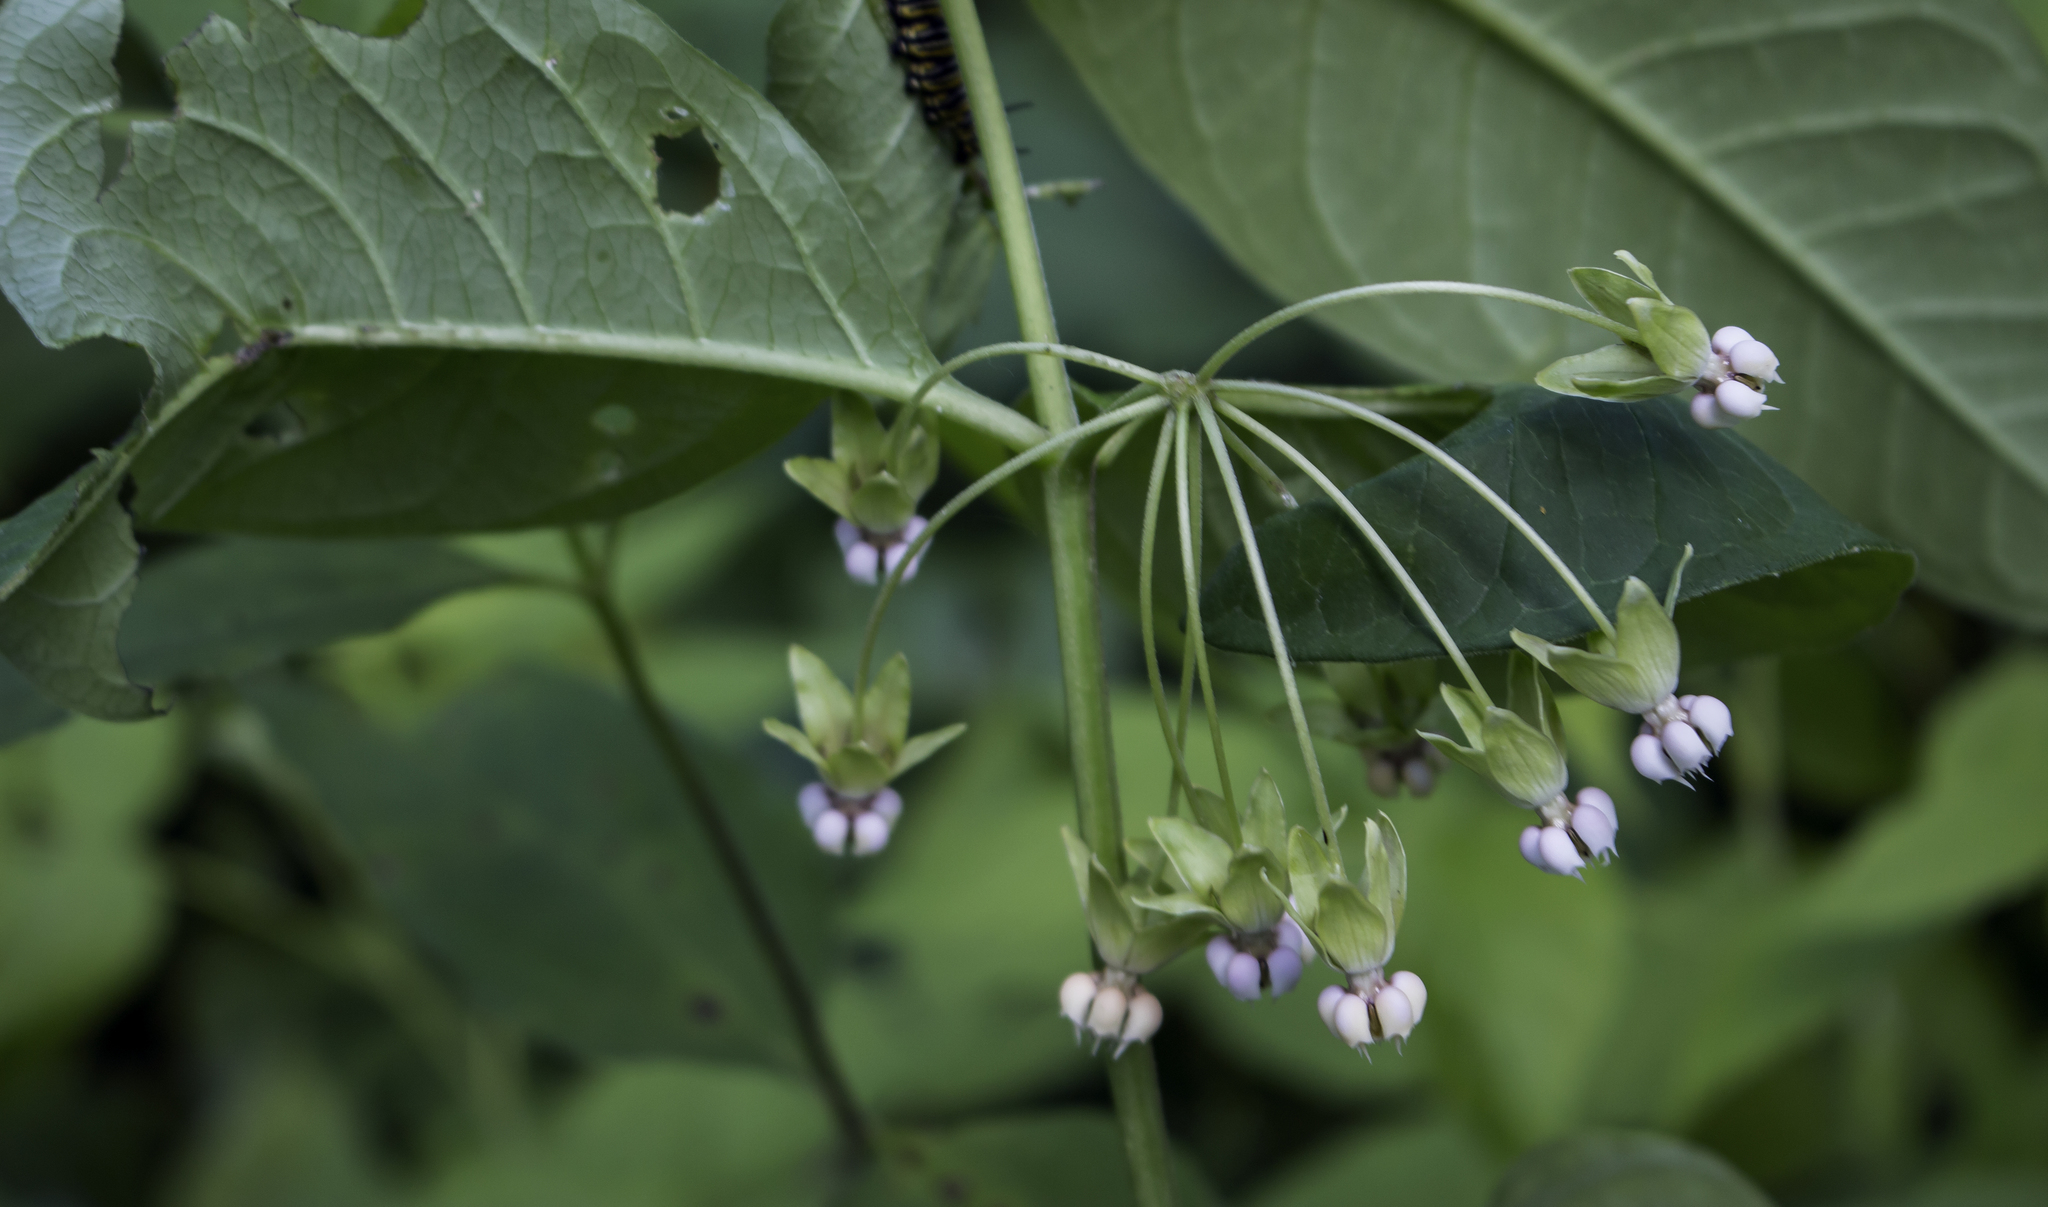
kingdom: Plantae
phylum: Tracheophyta
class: Magnoliopsida
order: Gentianales
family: Apocynaceae
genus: Asclepias
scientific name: Asclepias exaltata
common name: Poke milkweed
